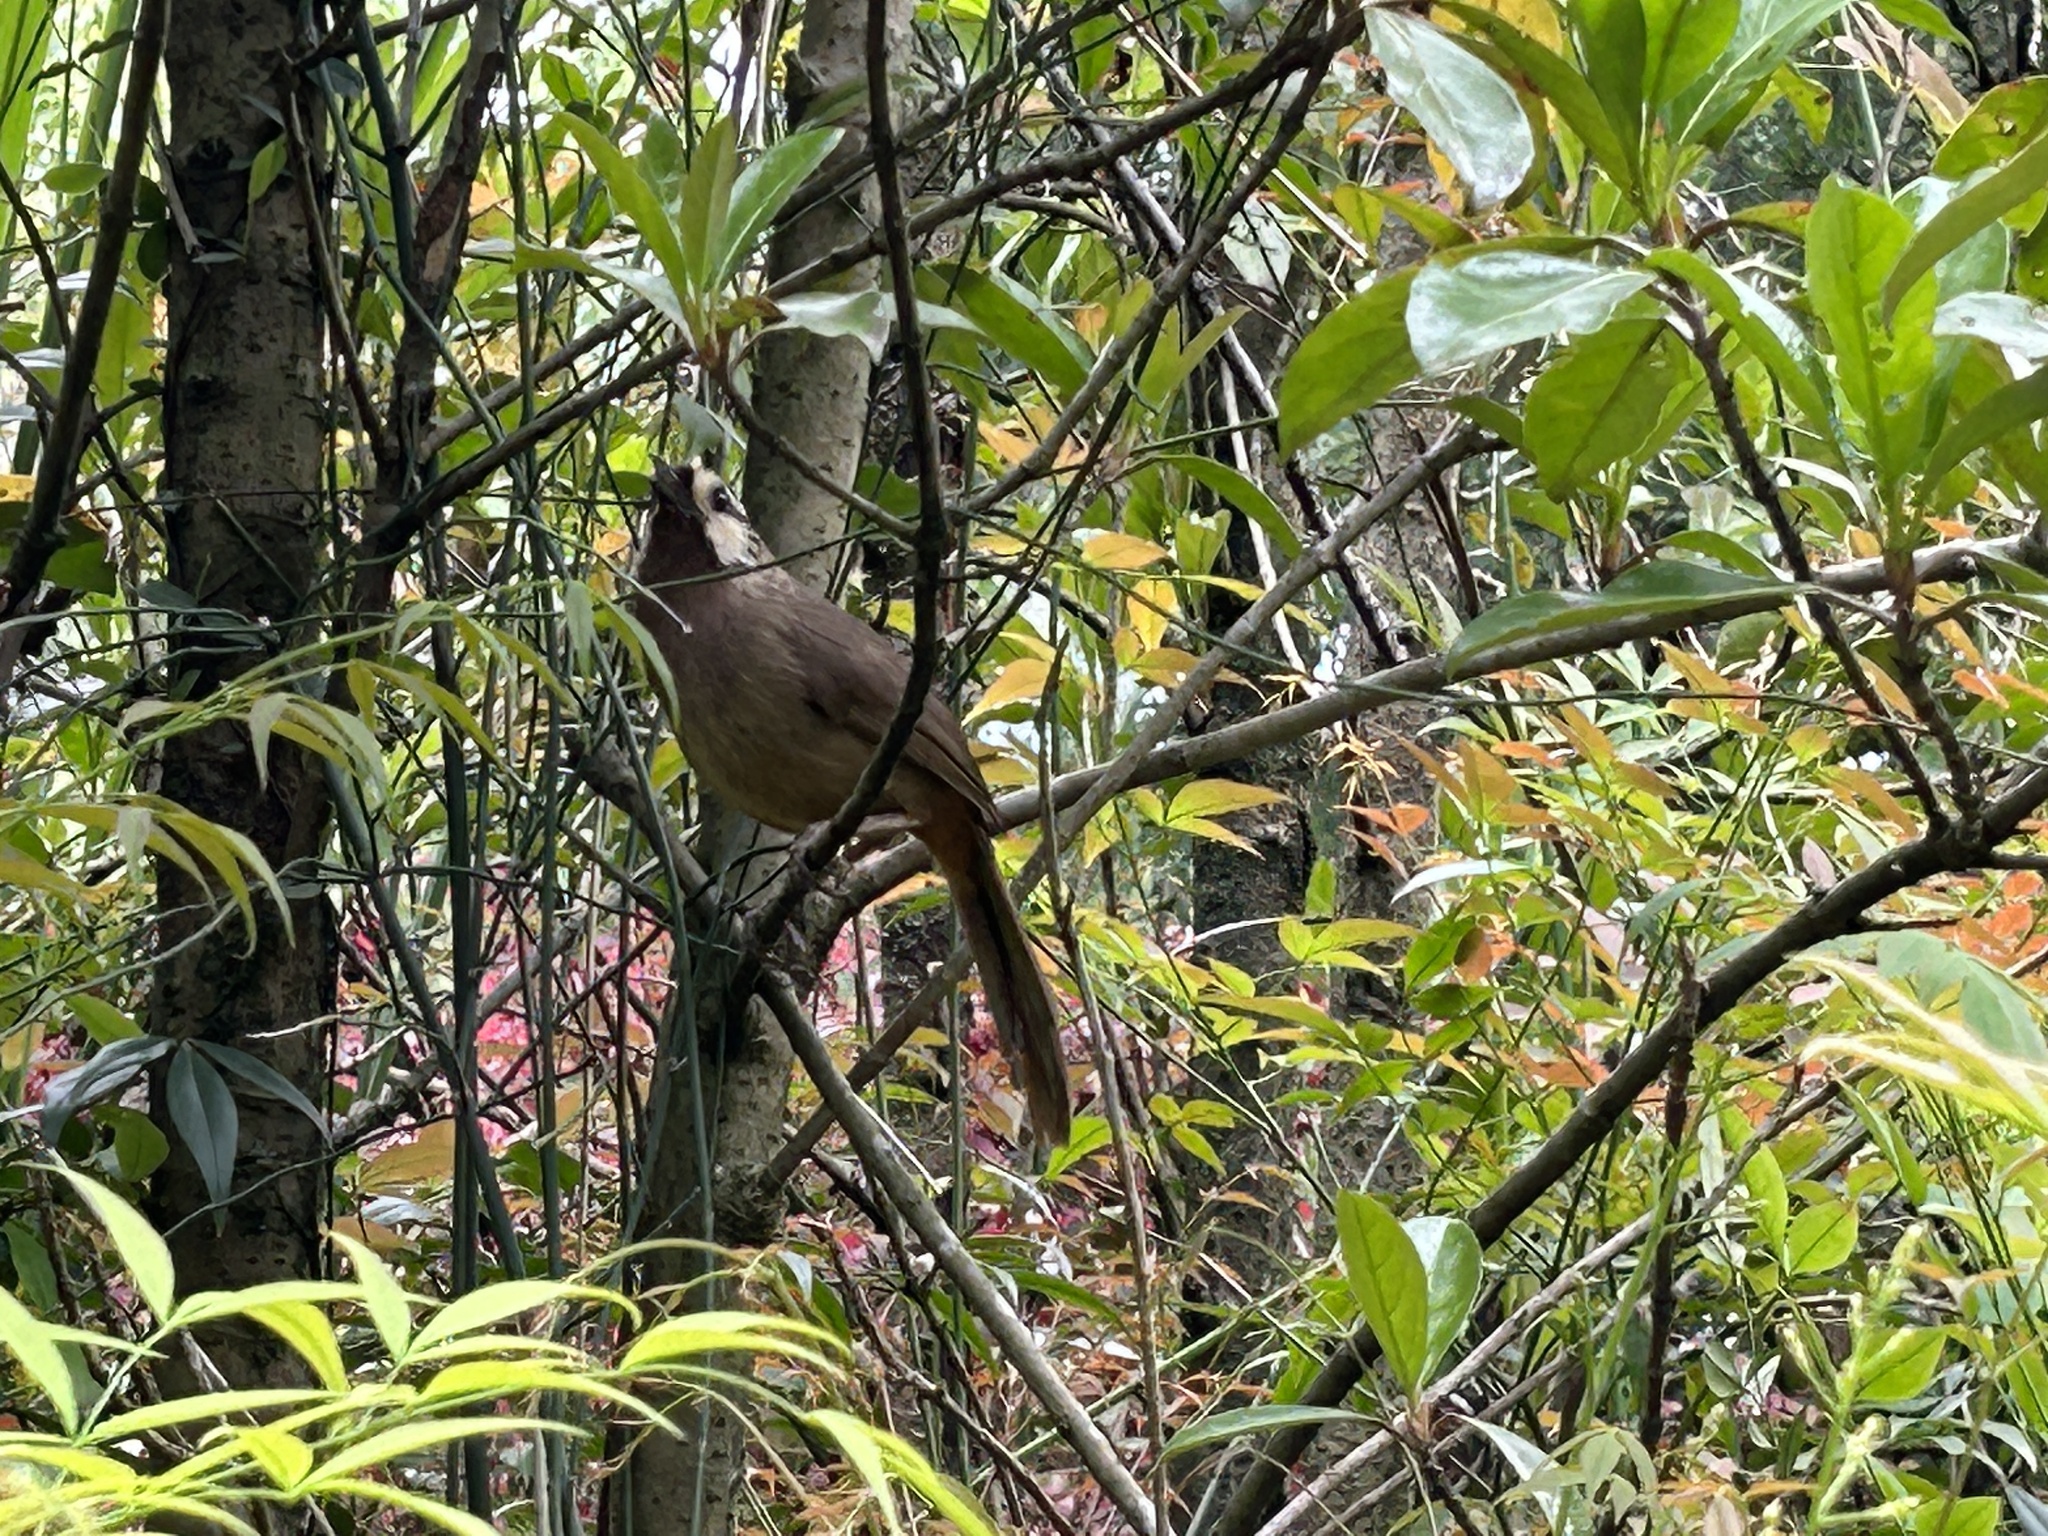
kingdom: Animalia
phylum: Chordata
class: Aves
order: Passeriformes
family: Leiothrichidae
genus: Pterorhinus
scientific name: Pterorhinus sannio
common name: White-browed laughingthrush
